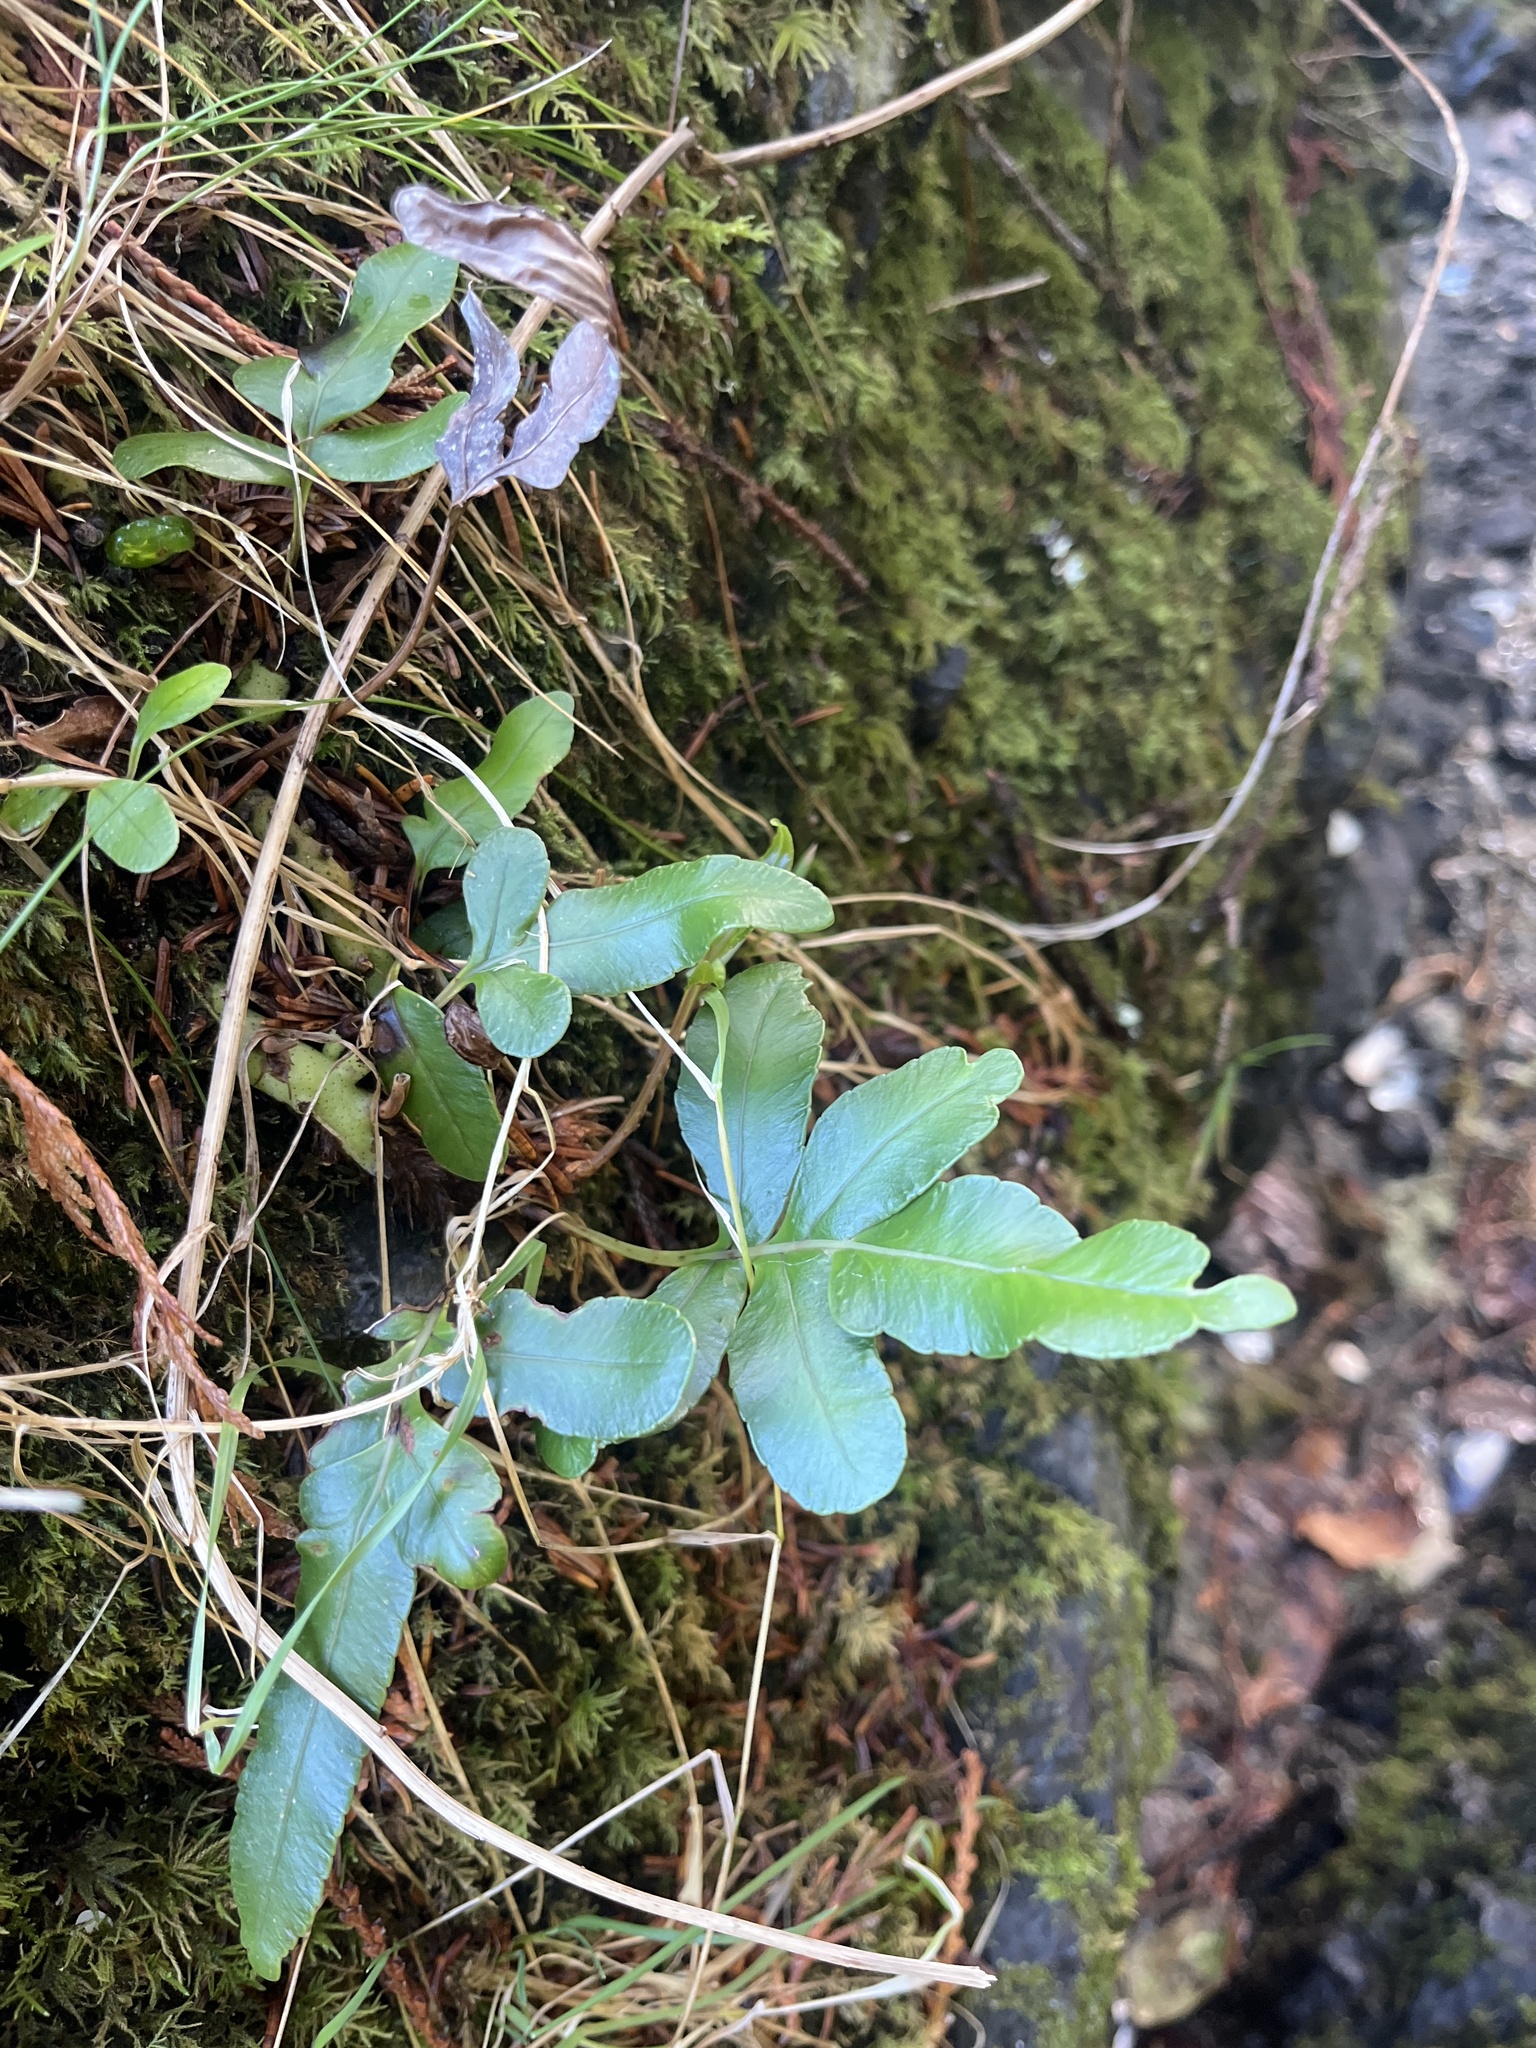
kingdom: Plantae
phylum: Tracheophyta
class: Polypodiopsida
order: Polypodiales
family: Polypodiaceae
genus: Polypodium
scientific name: Polypodium scouleri
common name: Scouler's polypody
